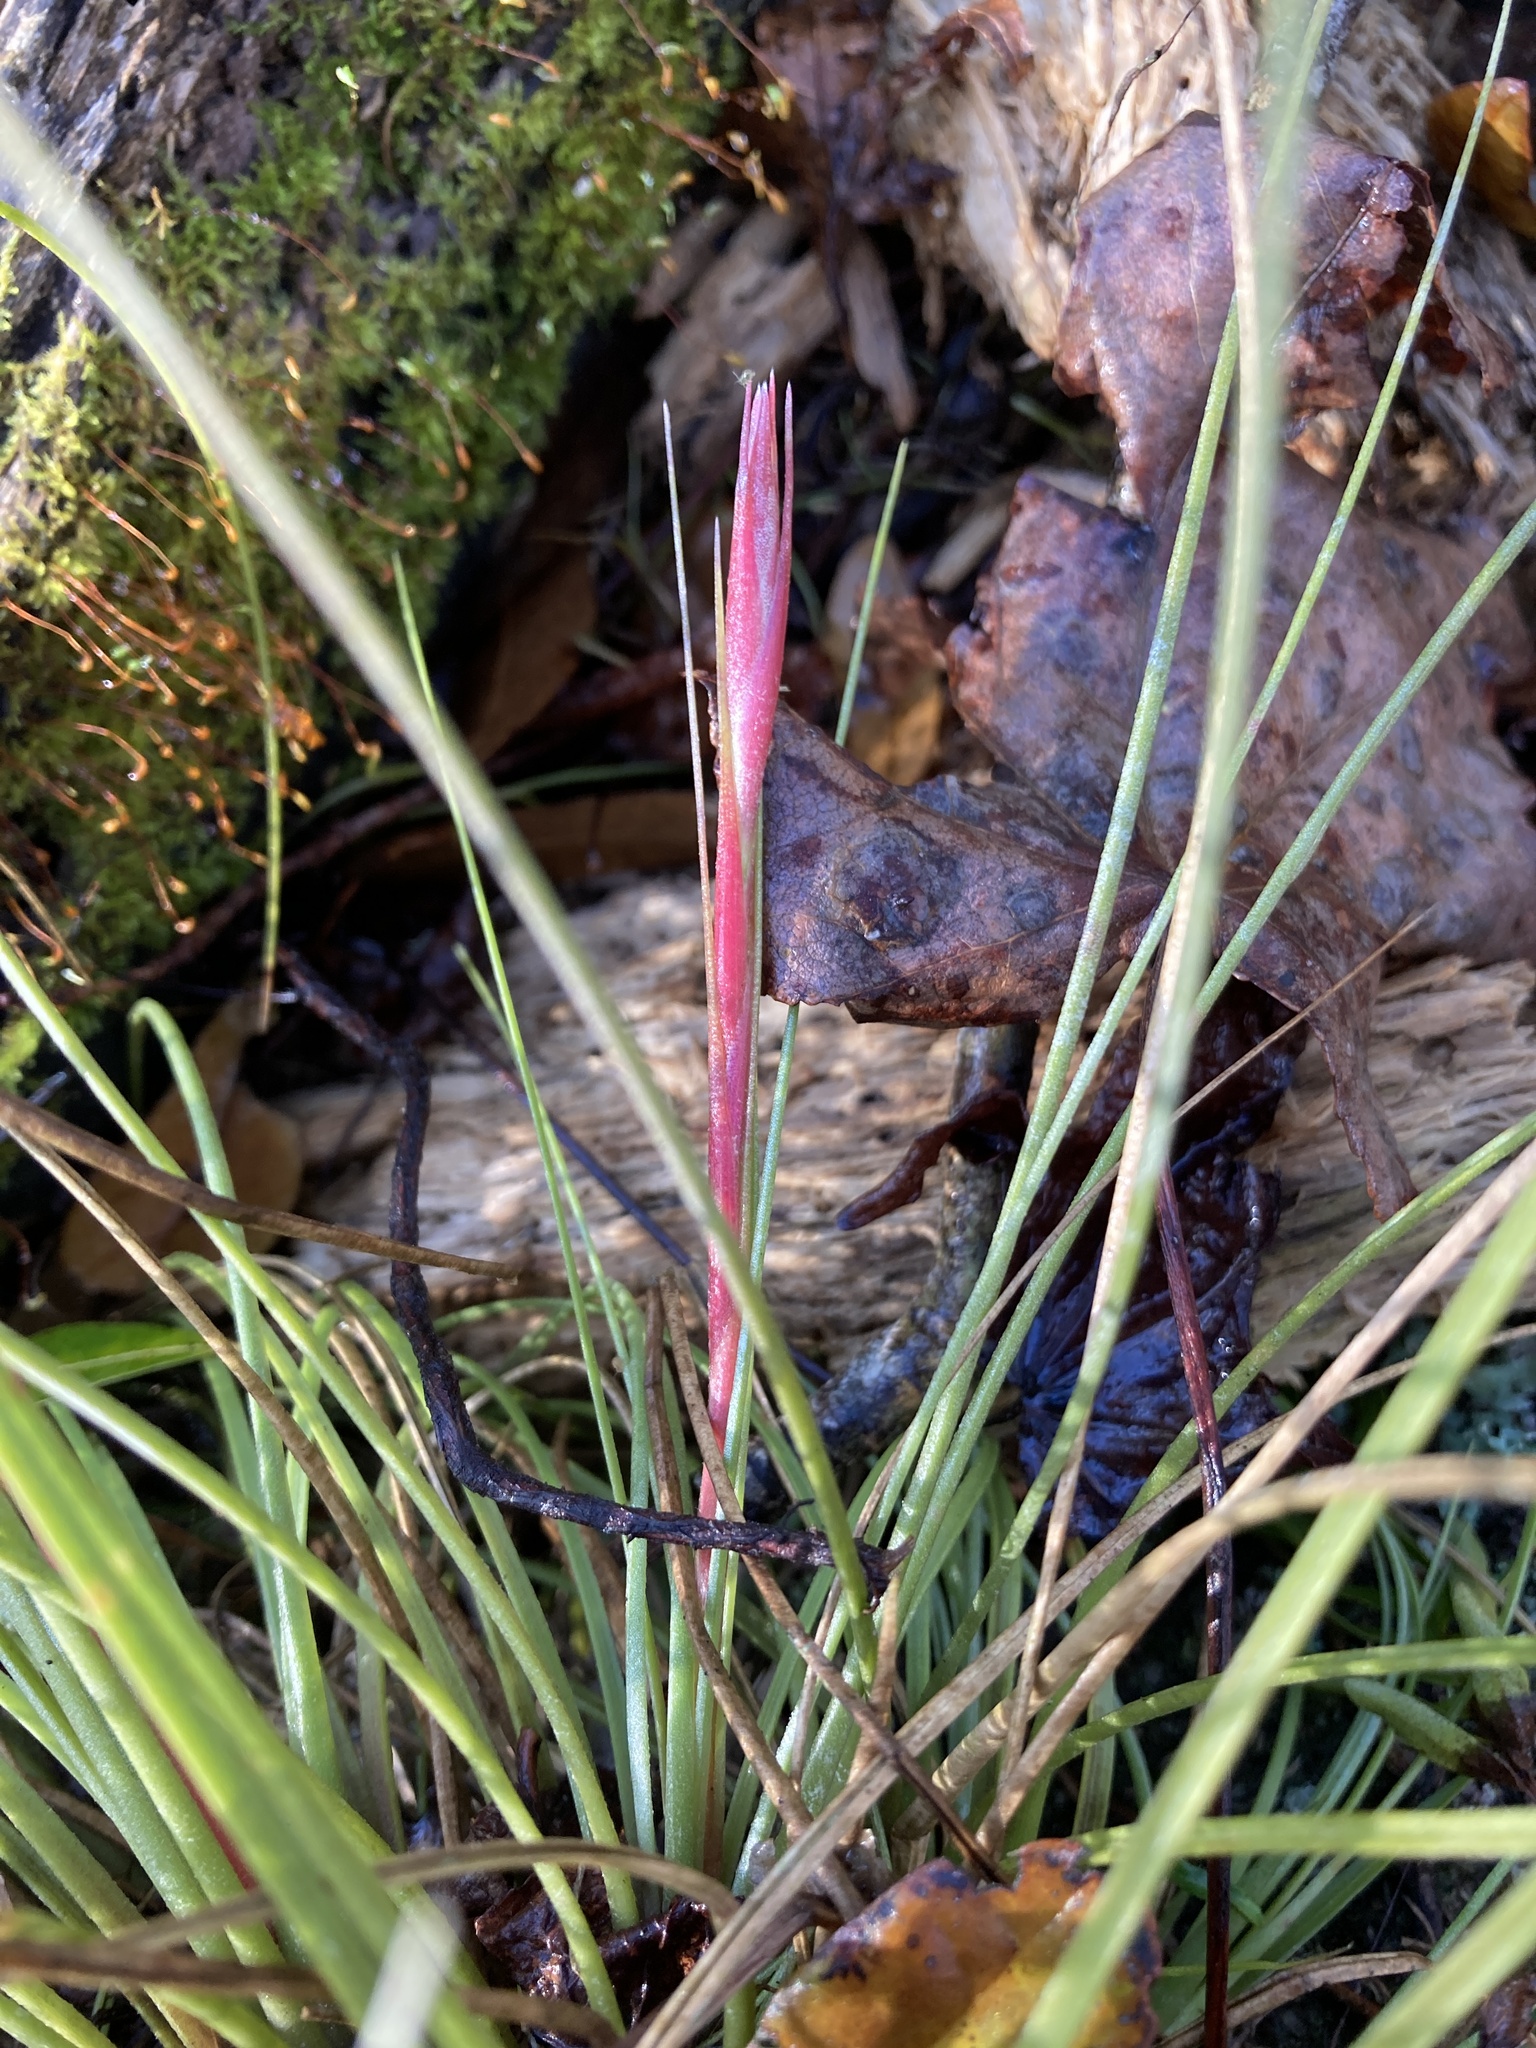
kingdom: Plantae
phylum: Tracheophyta
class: Liliopsida
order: Poales
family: Bromeliaceae
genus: Tillandsia
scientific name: Tillandsia bartramii
